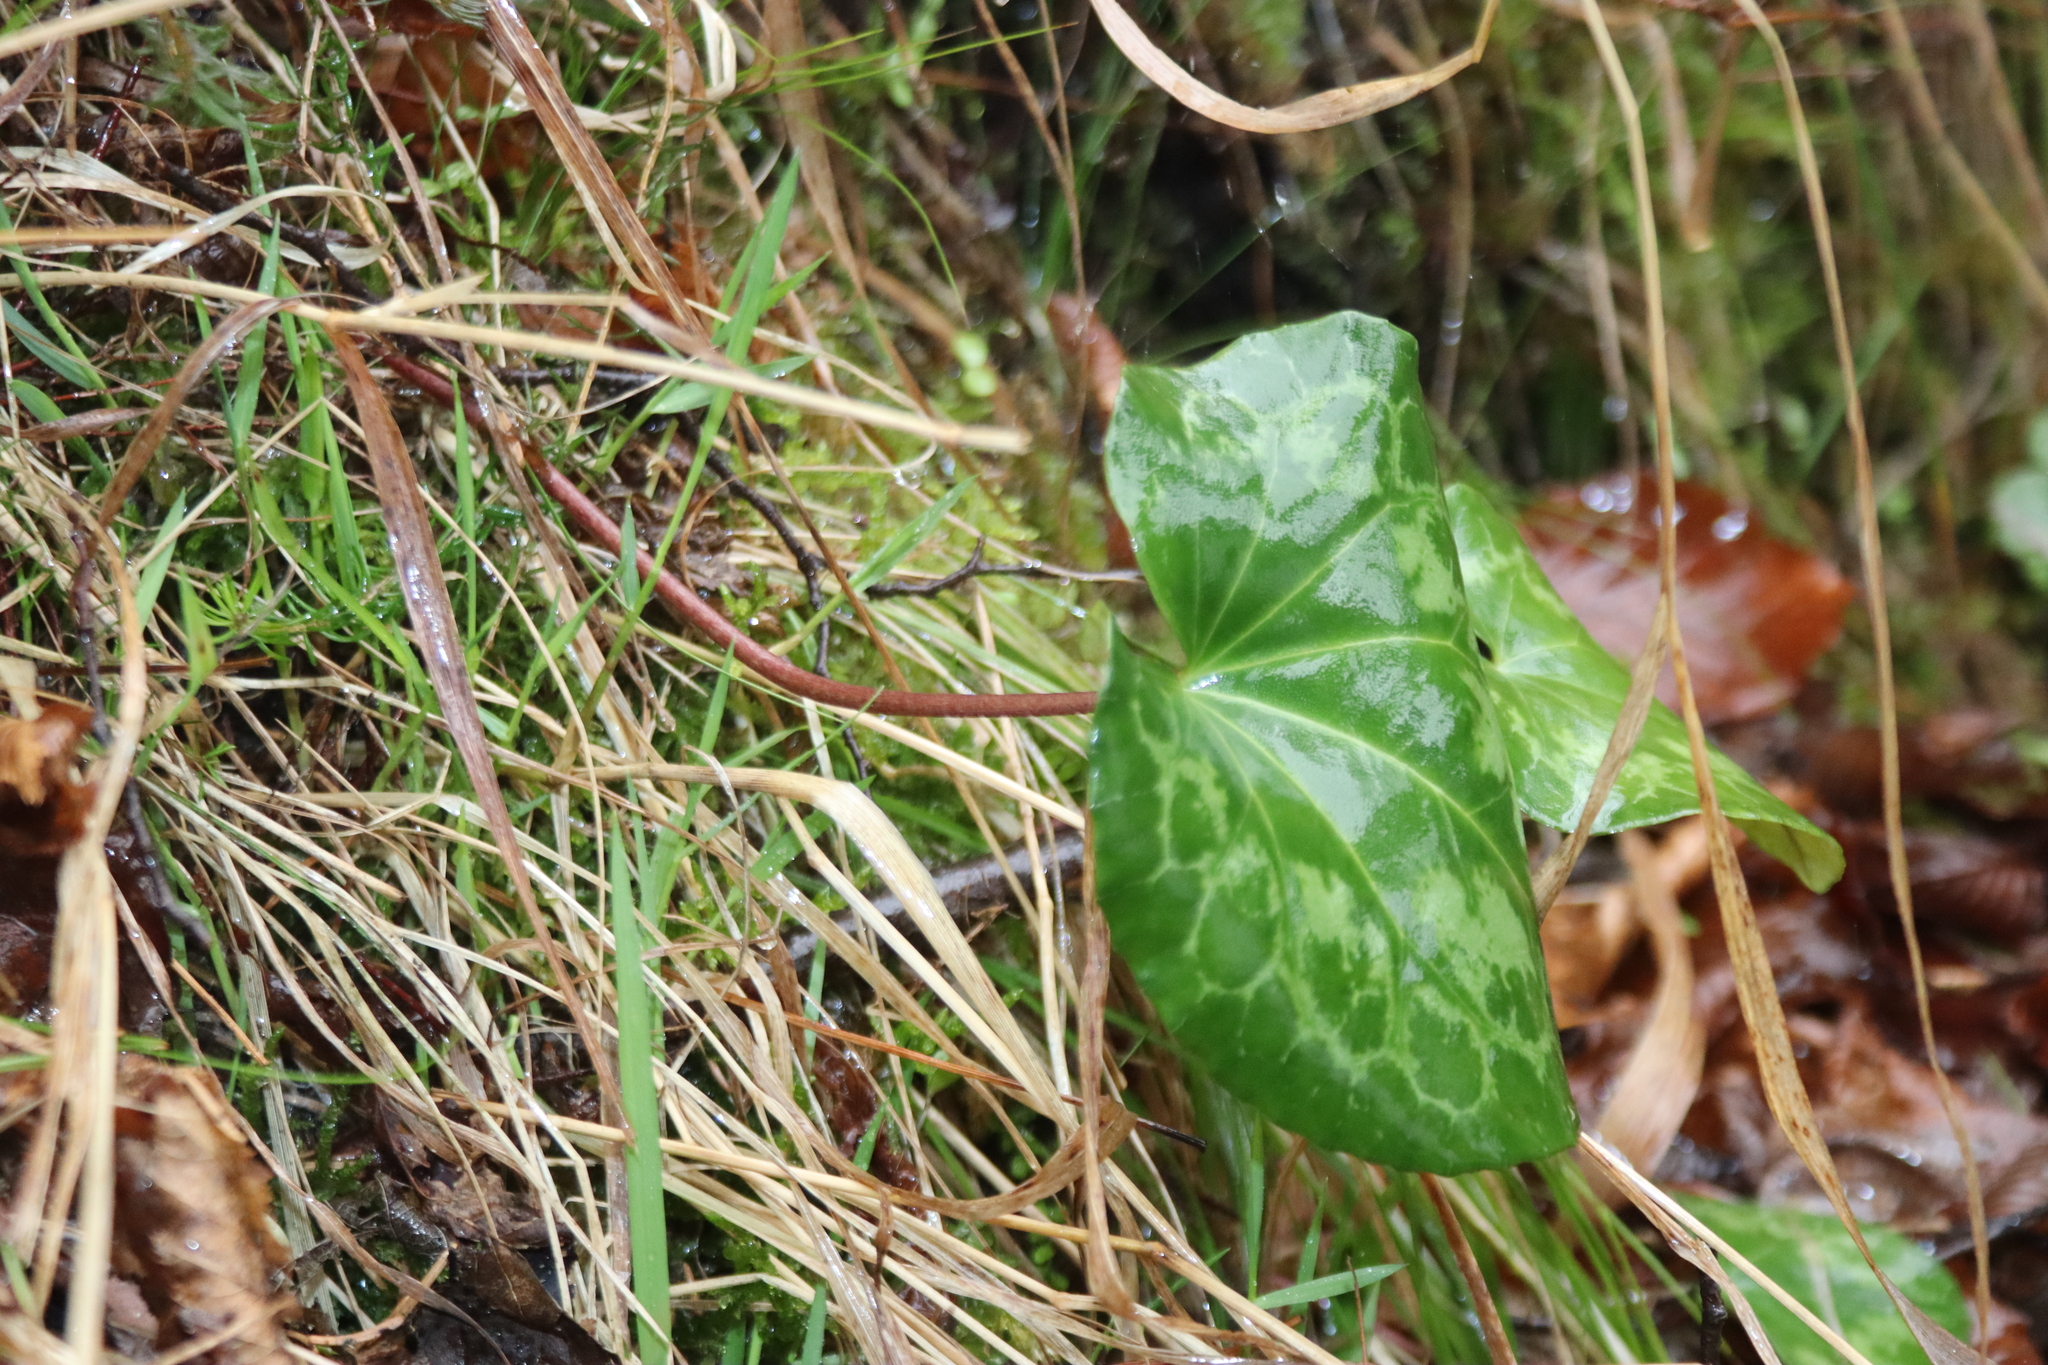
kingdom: Plantae
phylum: Tracheophyta
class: Magnoliopsida
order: Ericales
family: Primulaceae
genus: Cyclamen
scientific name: Cyclamen purpurascens
